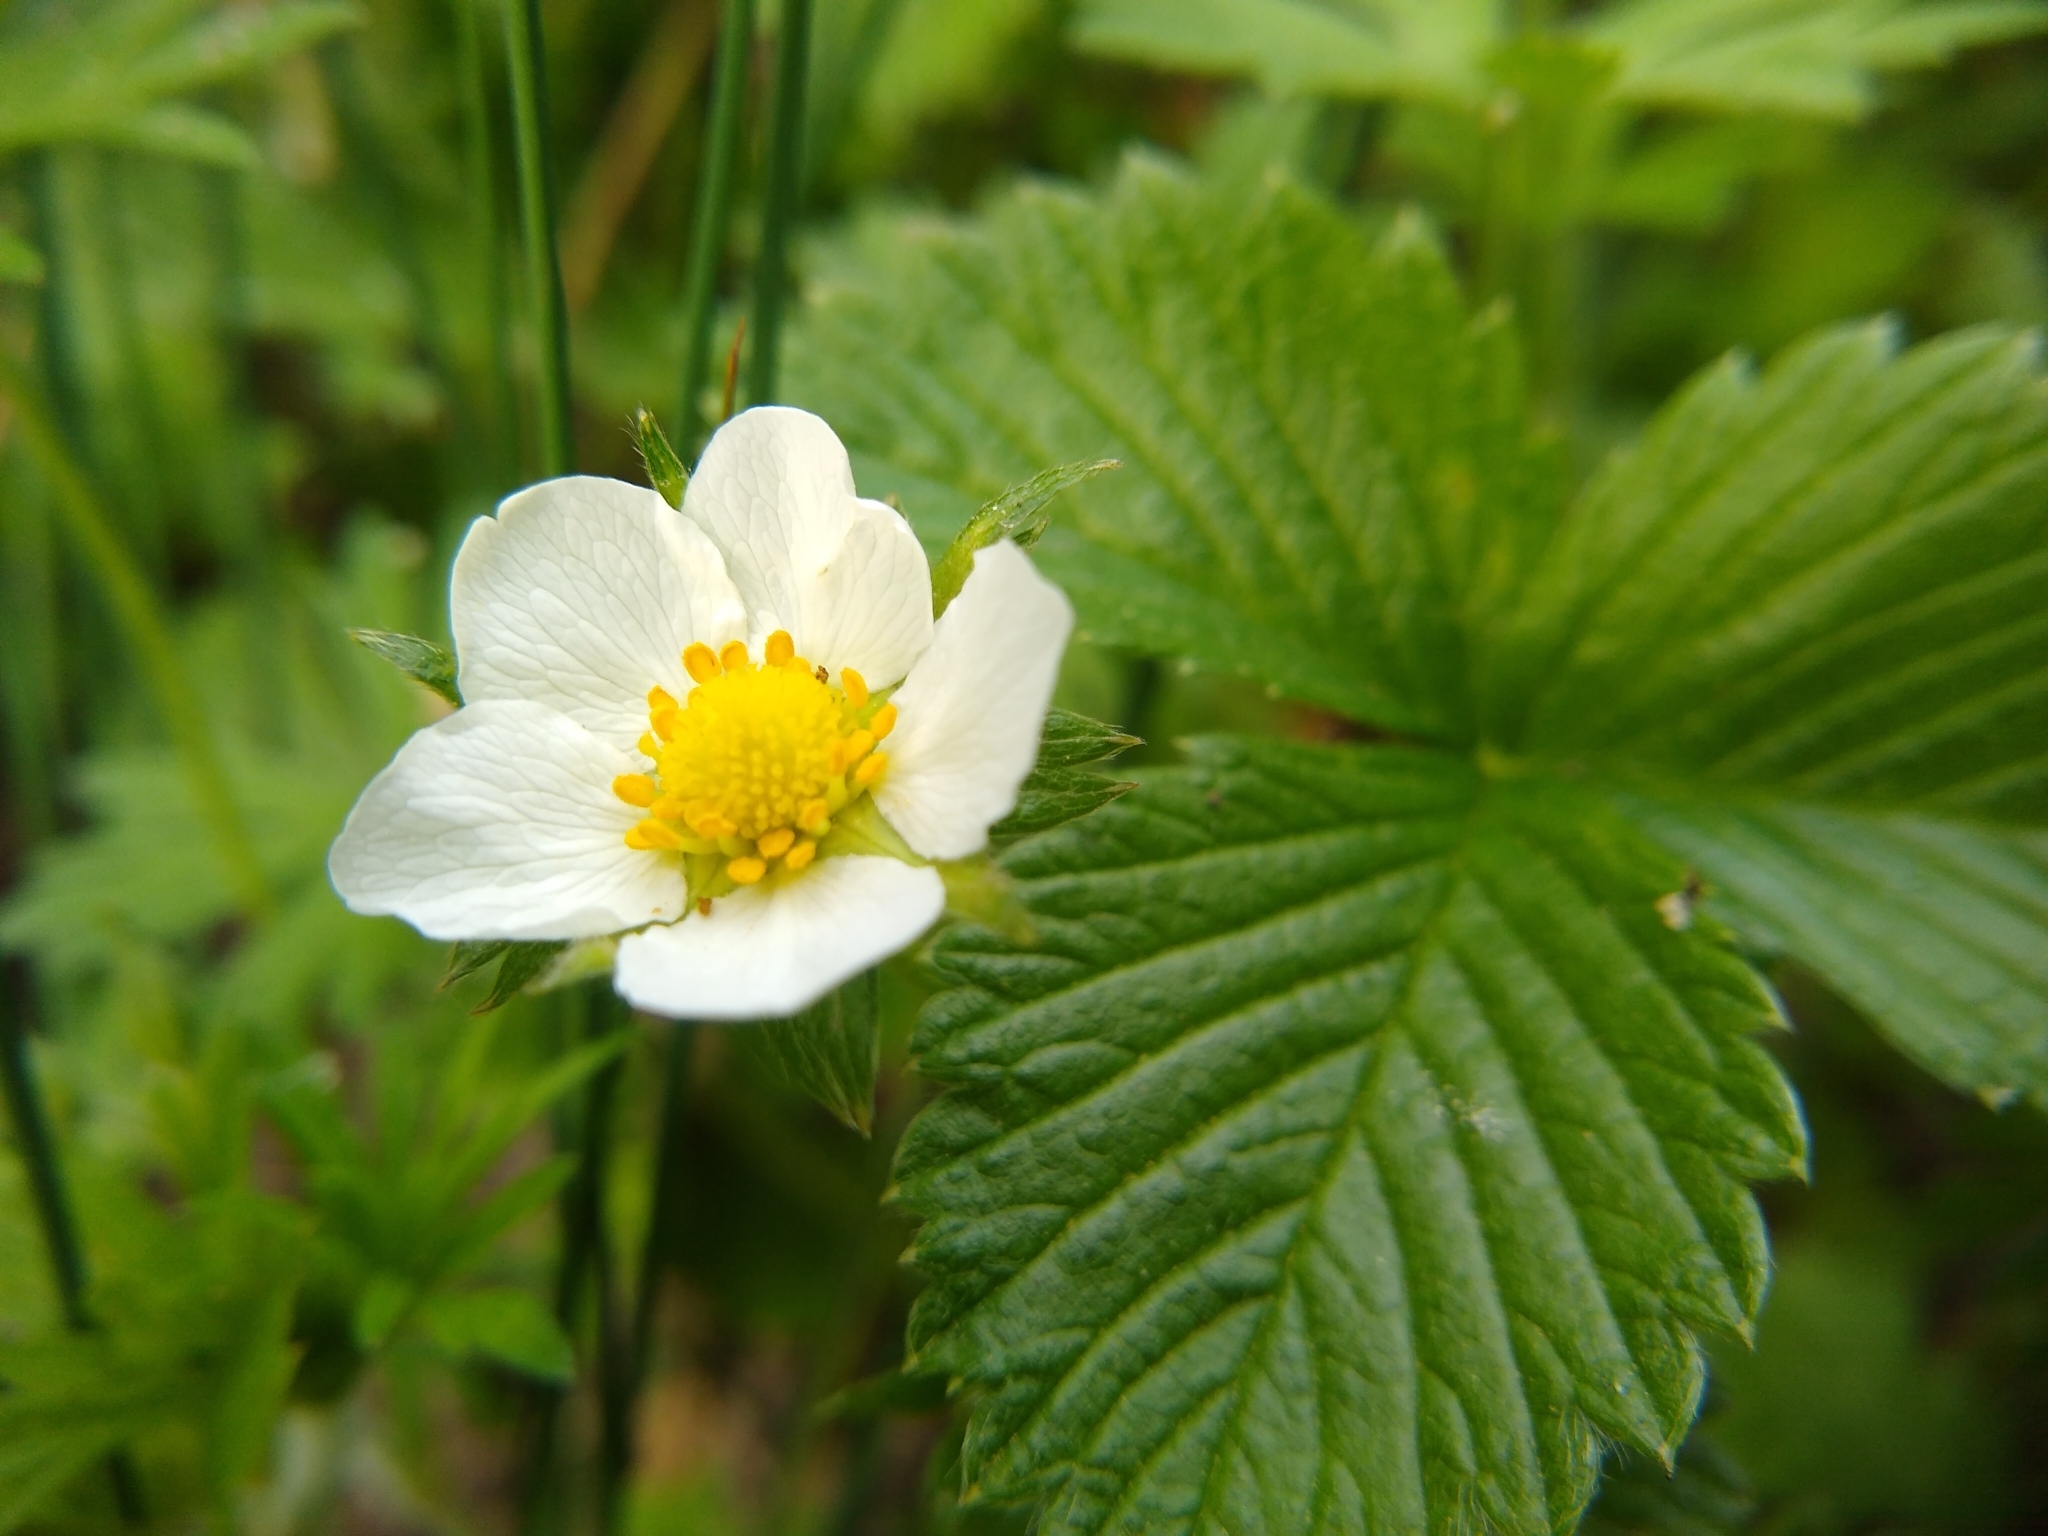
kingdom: Plantae
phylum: Tracheophyta
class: Magnoliopsida
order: Rosales
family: Rosaceae
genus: Fragaria
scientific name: Fragaria vesca
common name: Wild strawberry
